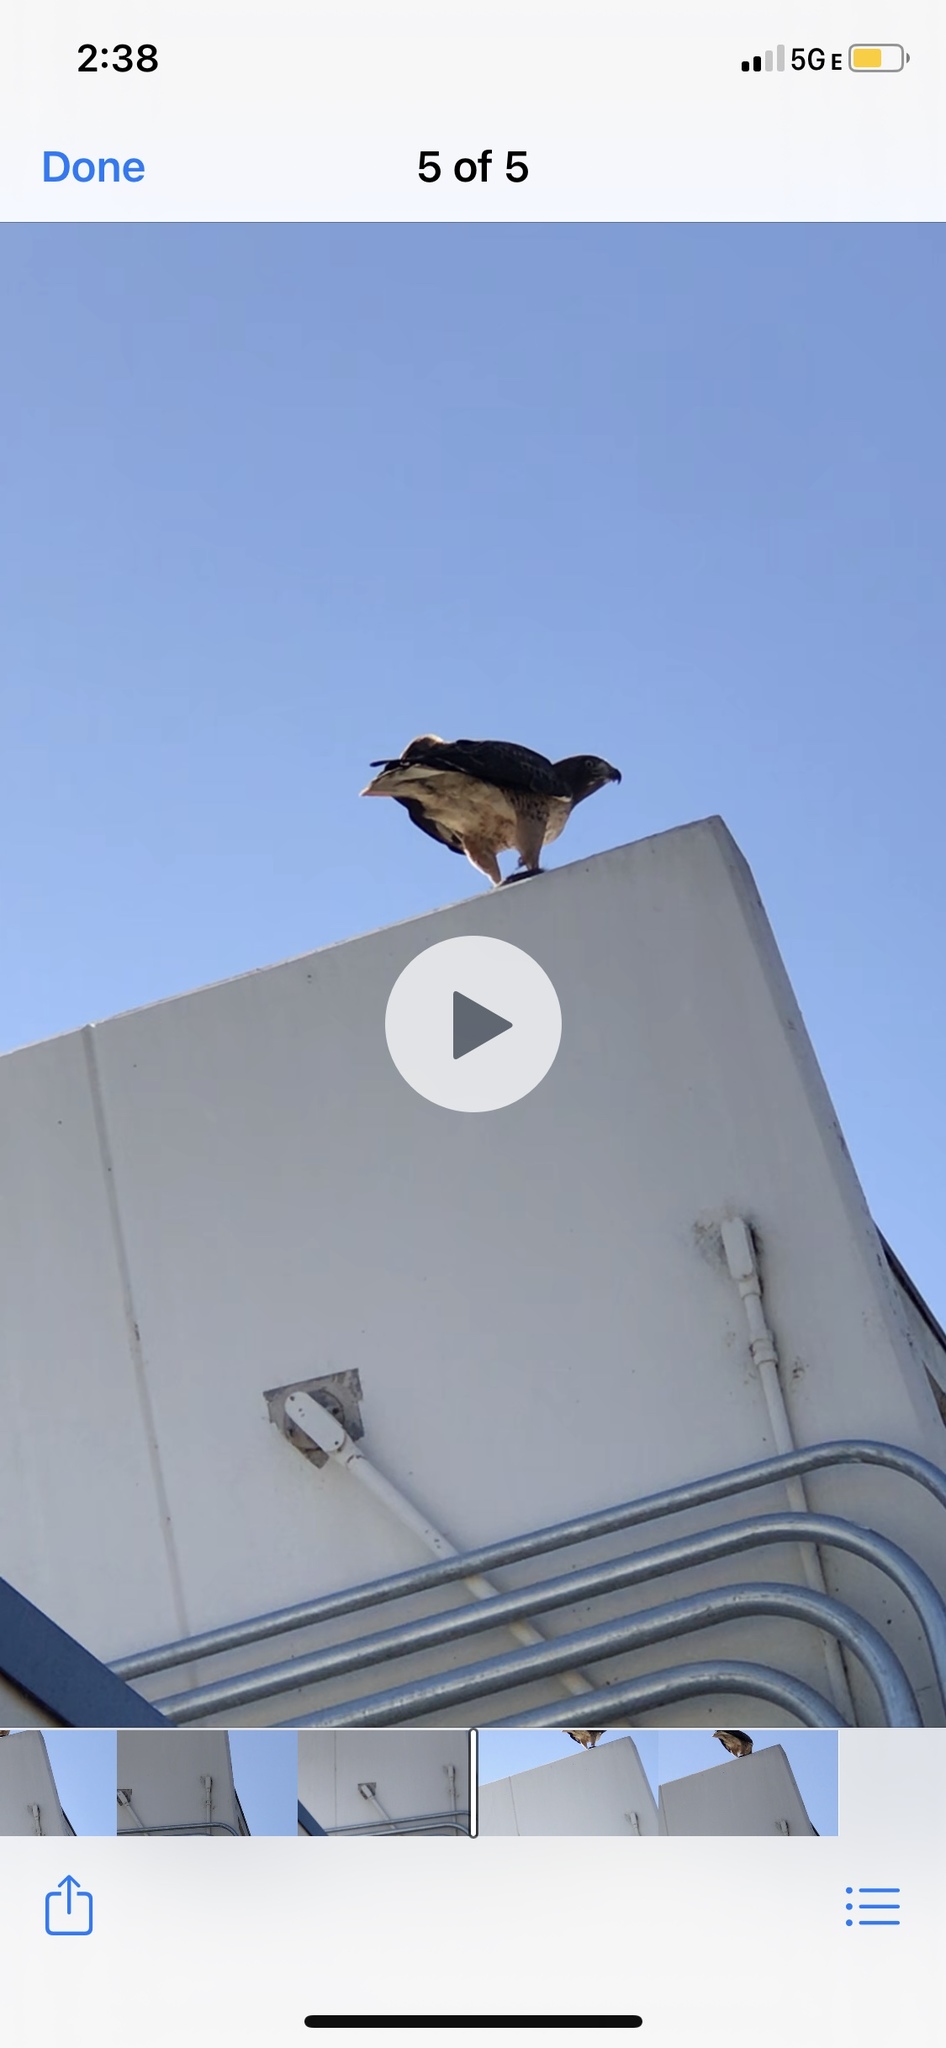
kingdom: Animalia
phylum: Chordata
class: Aves
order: Accipitriformes
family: Accipitridae
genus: Buteo
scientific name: Buteo jamaicensis
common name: Red-tailed hawk
